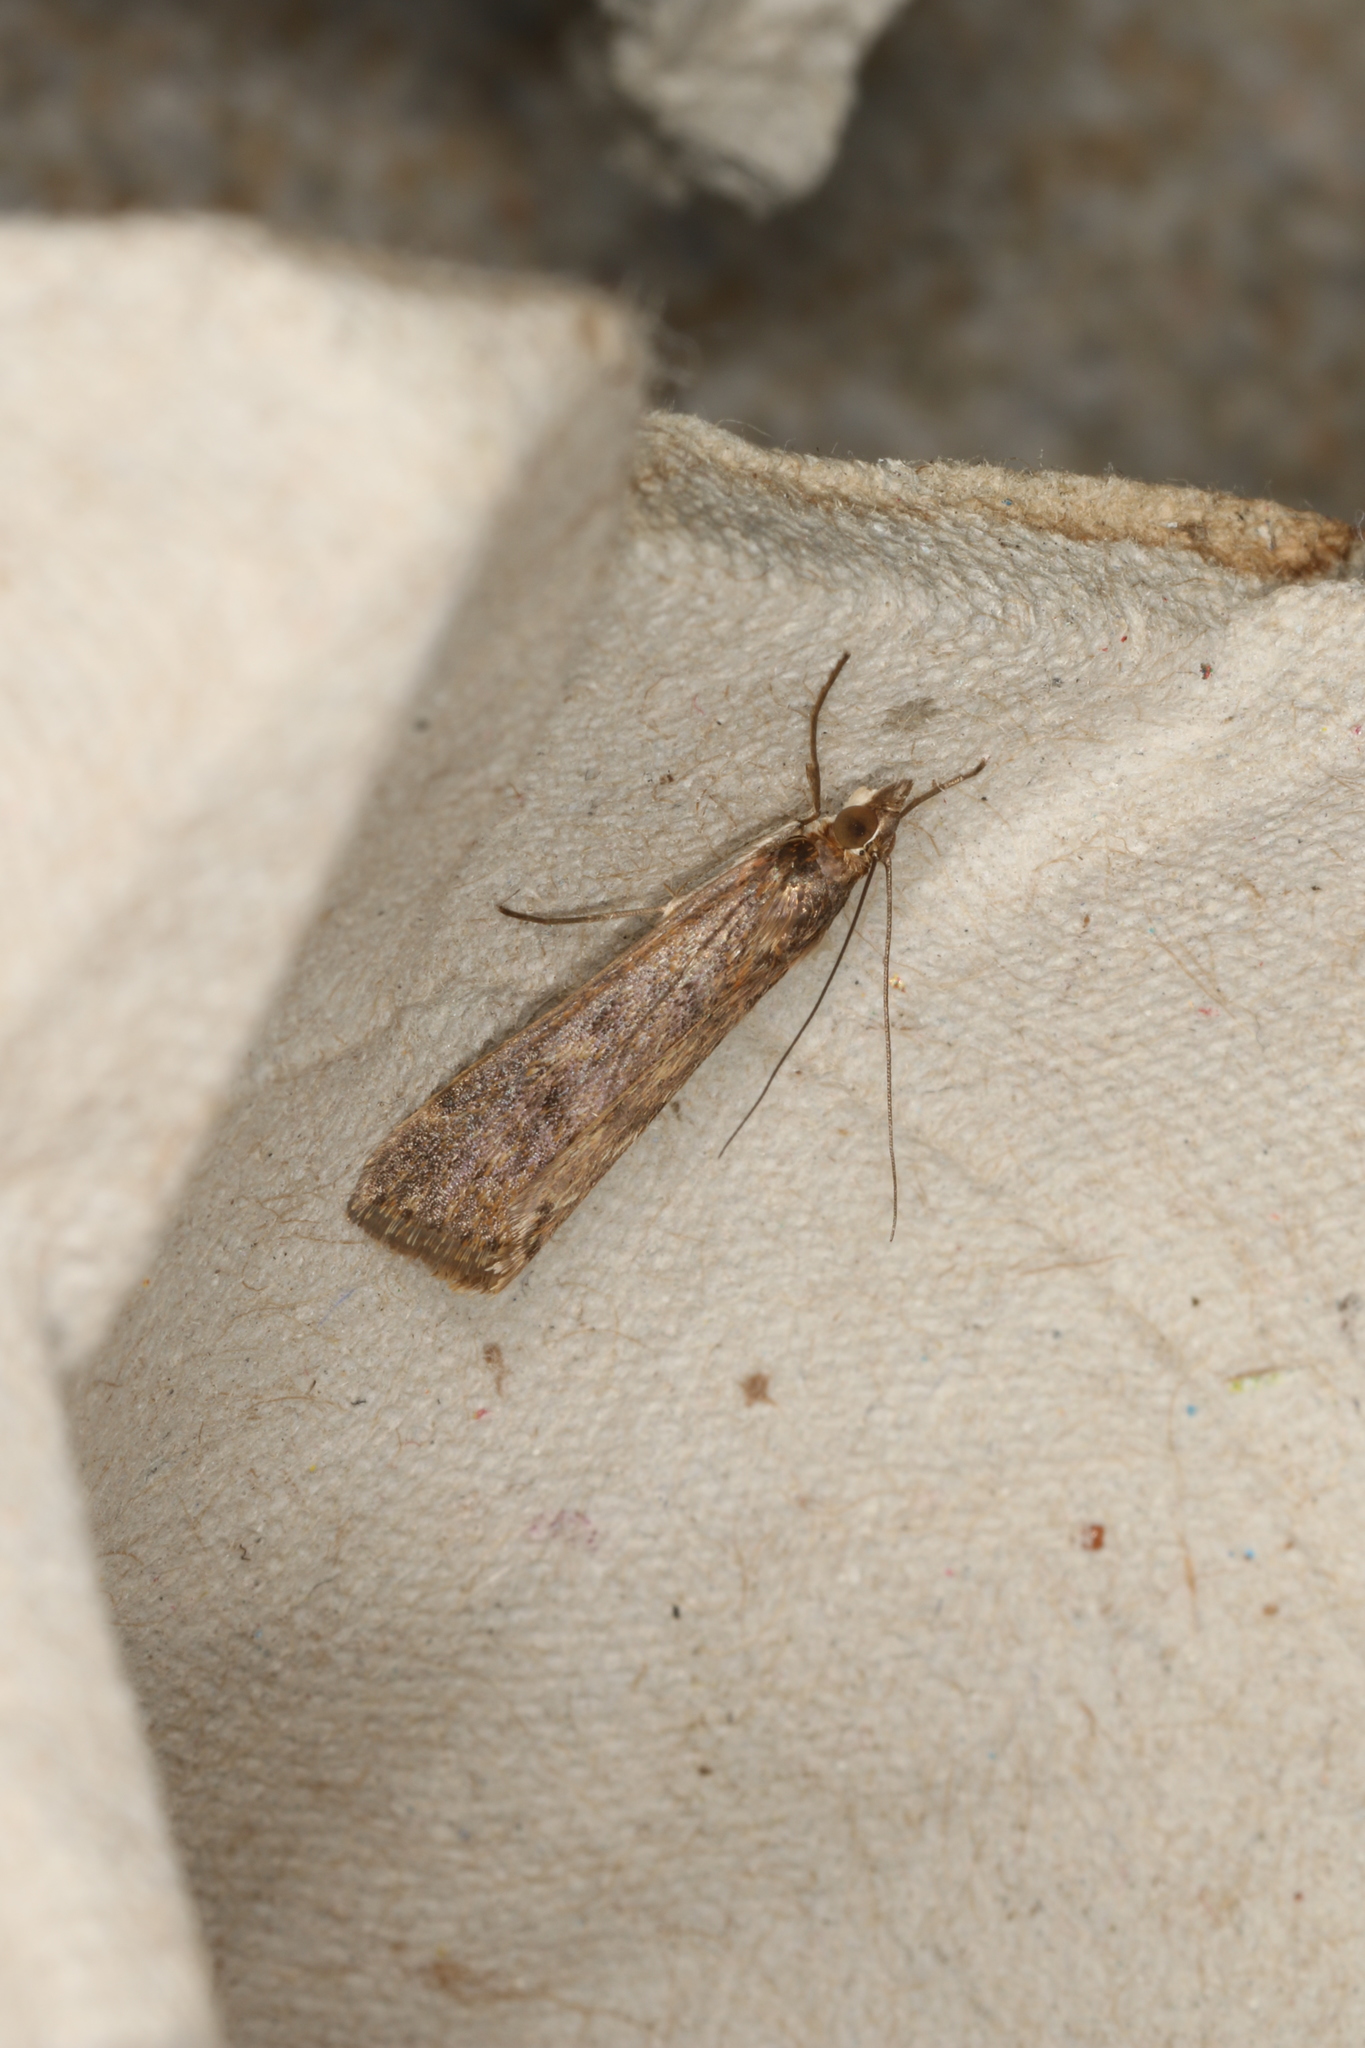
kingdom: Animalia
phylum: Arthropoda
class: Insecta
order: Lepidoptera
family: Crambidae
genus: Achyra
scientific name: Achyra affinitalis
